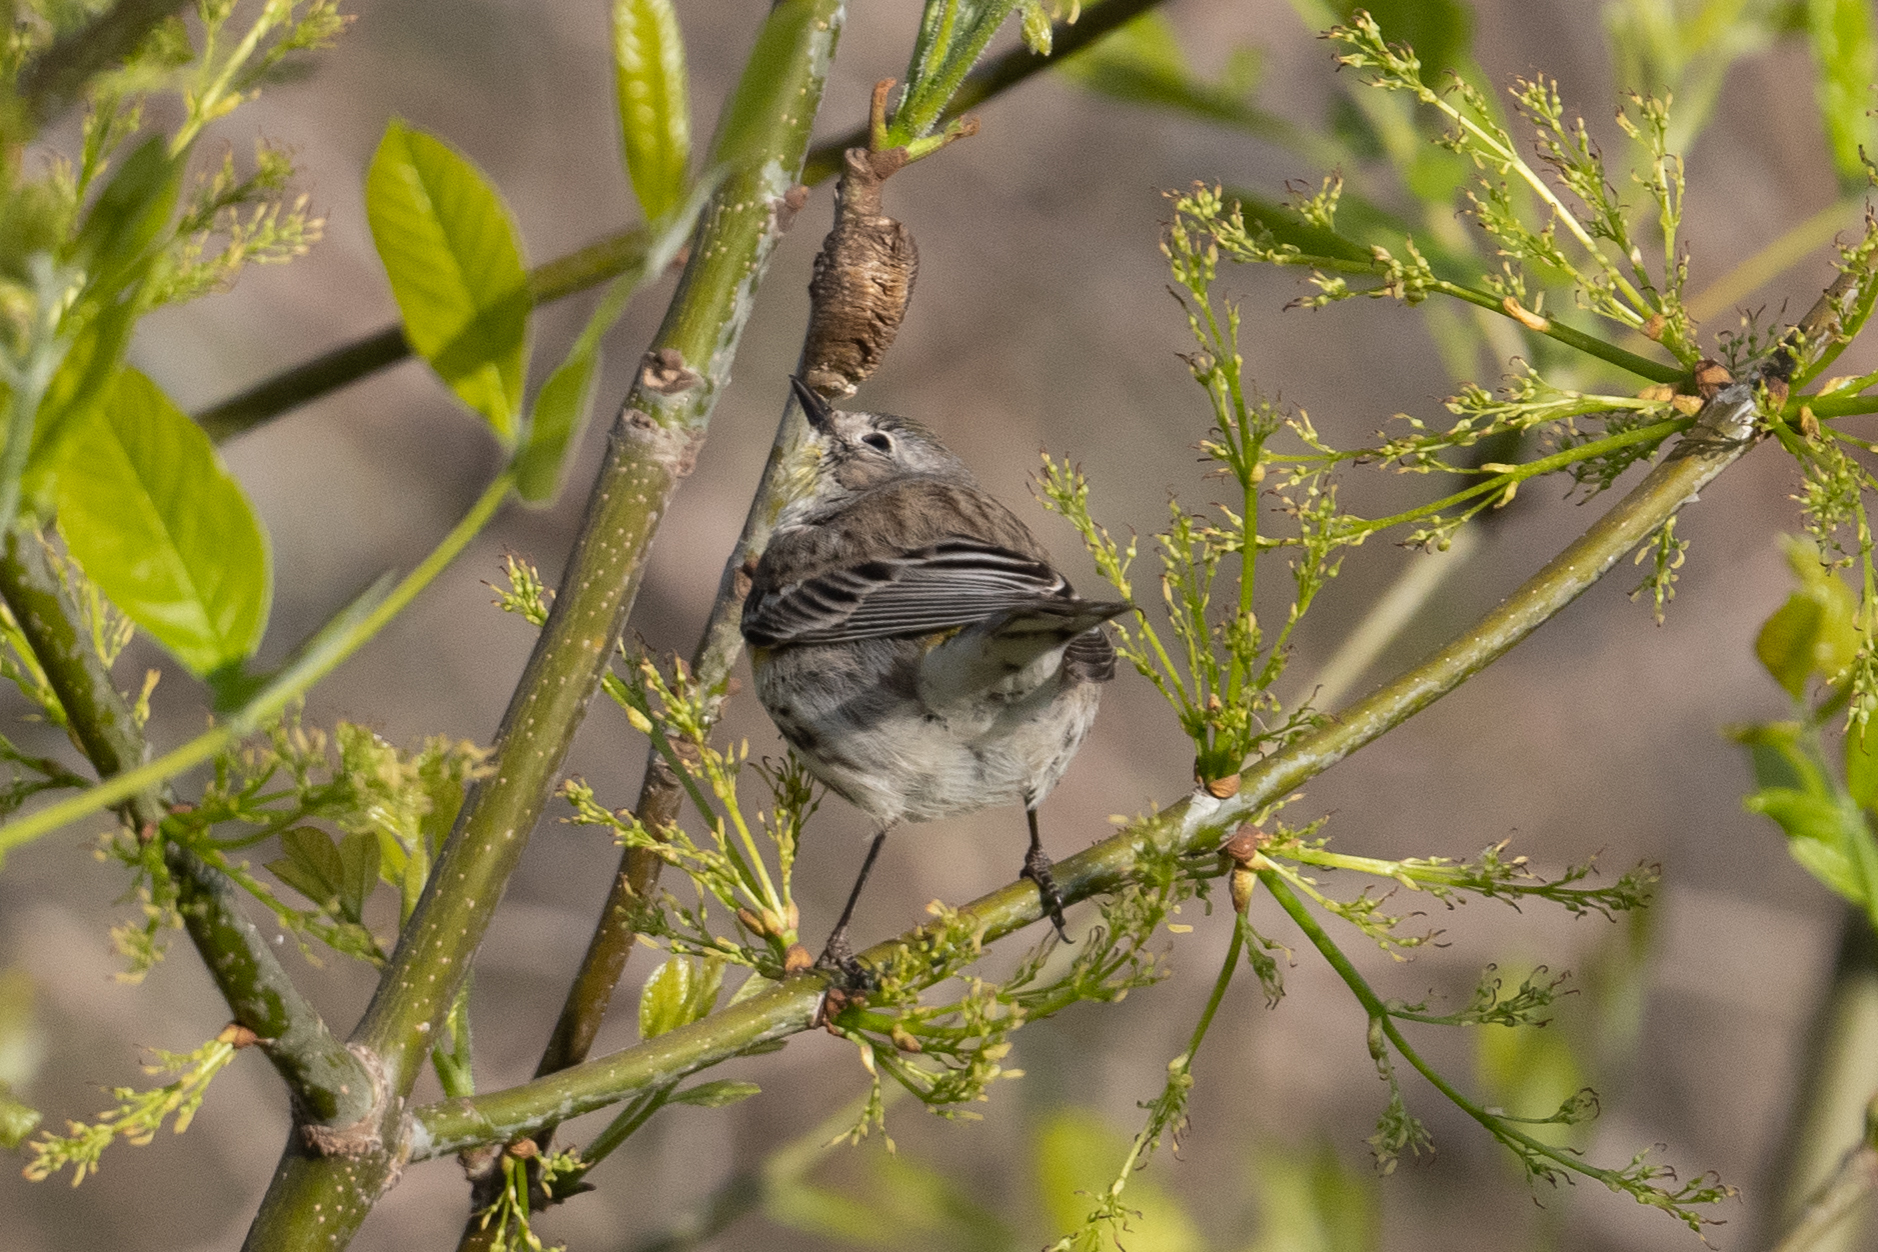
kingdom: Animalia
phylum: Chordata
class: Aves
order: Passeriformes
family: Parulidae
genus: Setophaga
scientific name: Setophaga coronata
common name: Myrtle warbler
